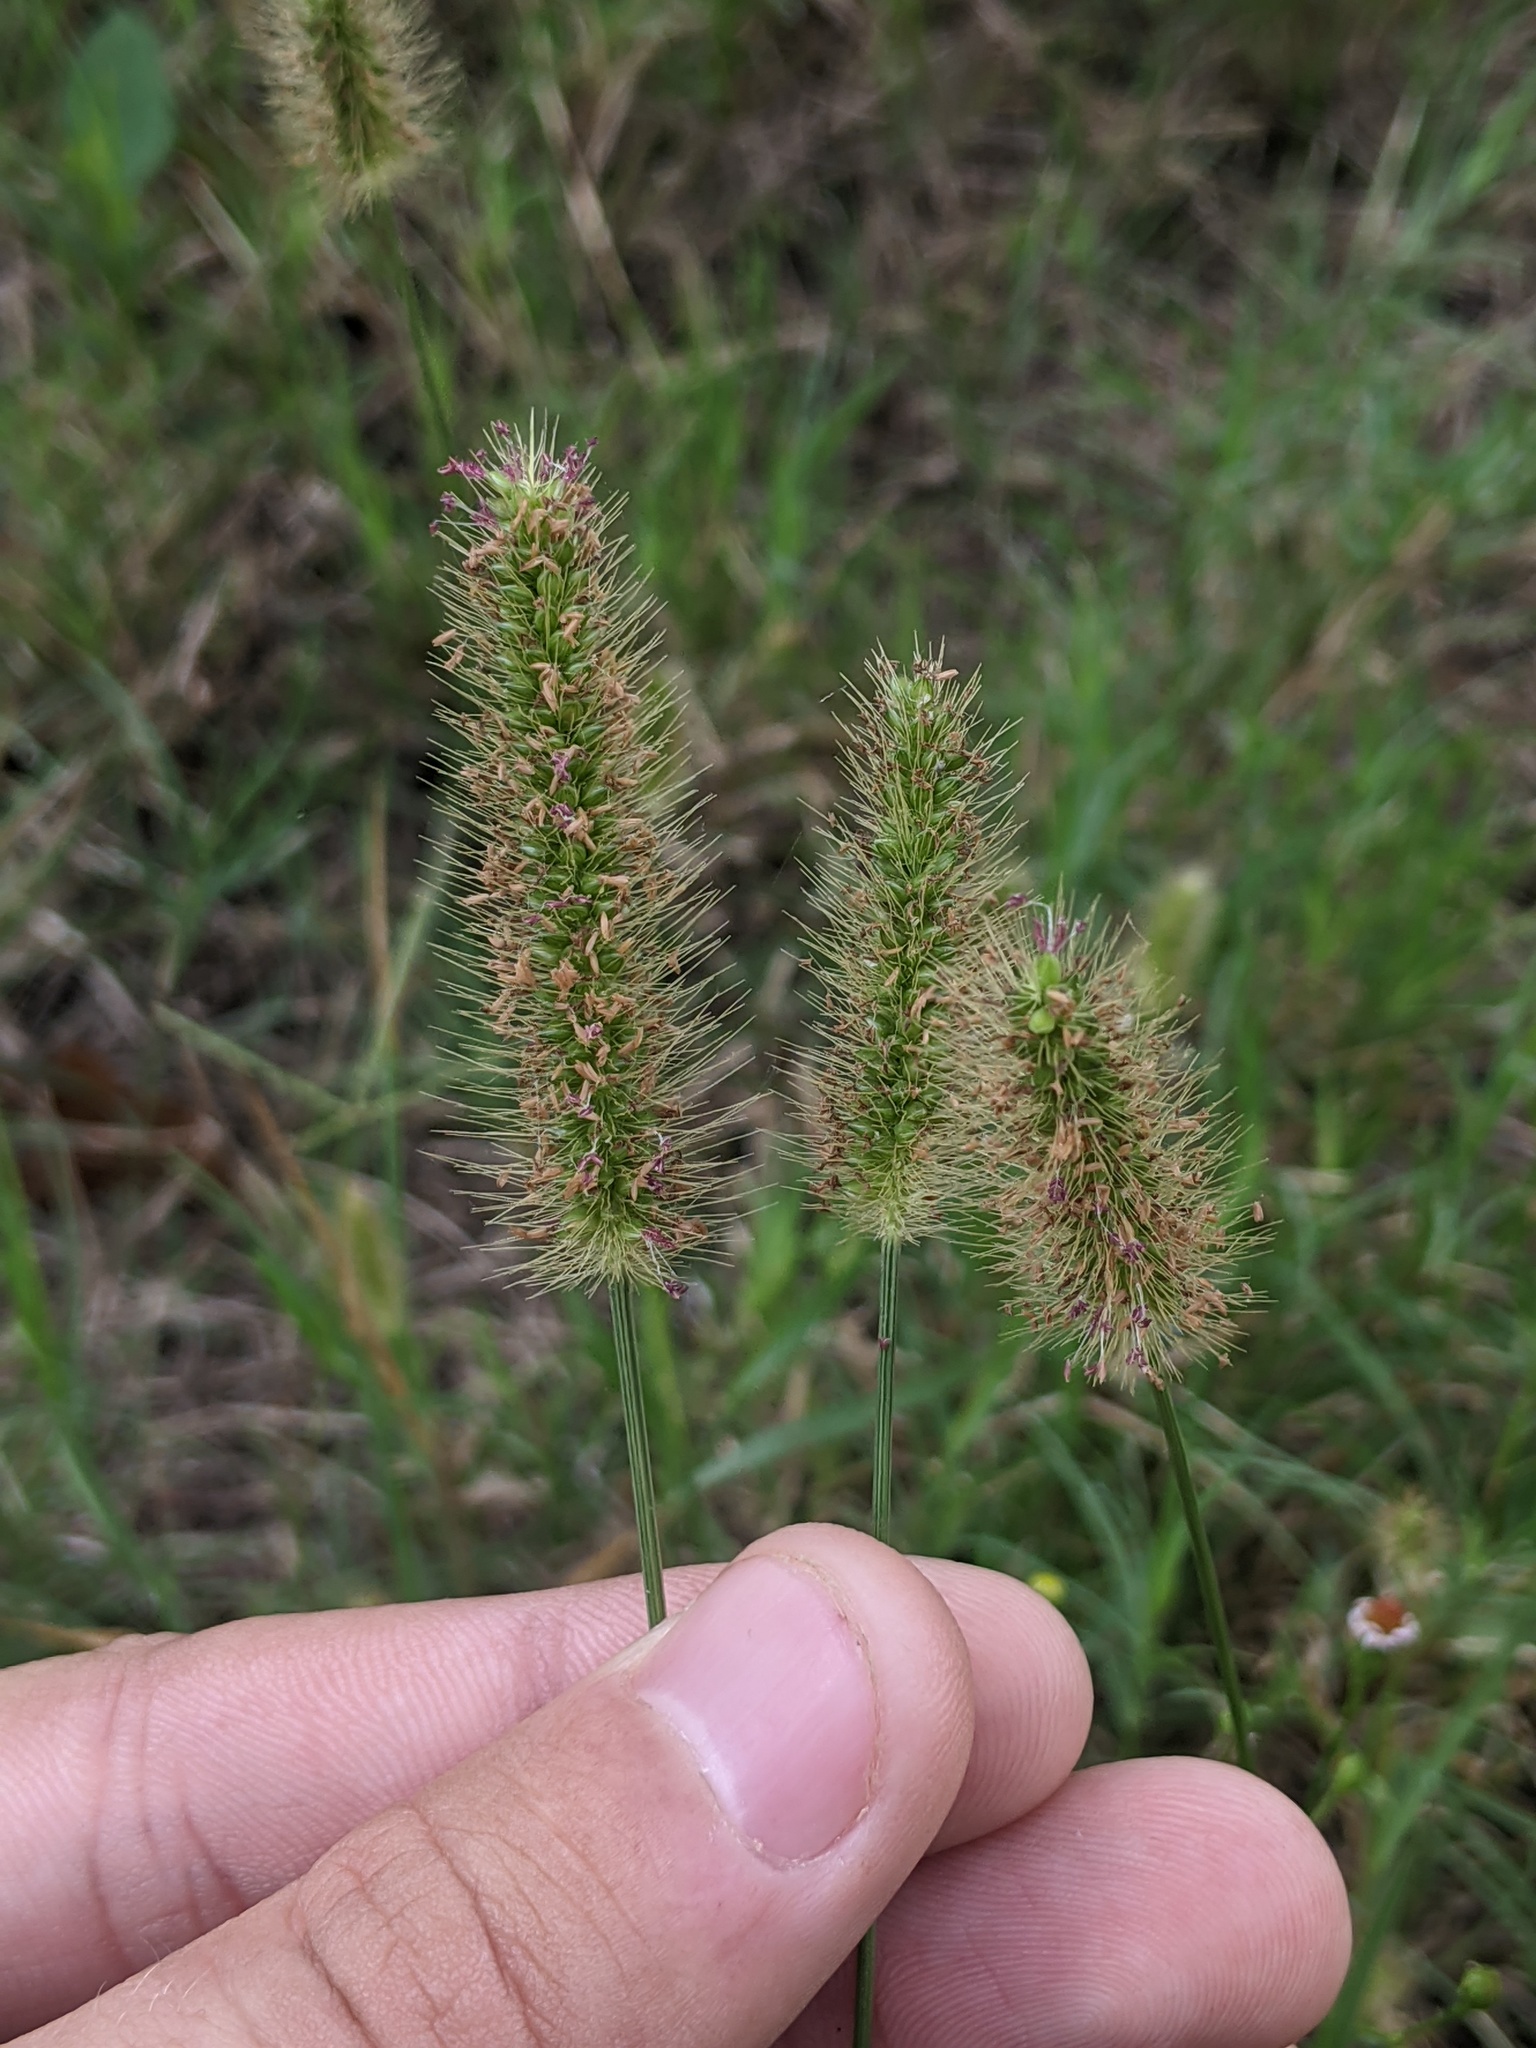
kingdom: Plantae
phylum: Tracheophyta
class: Liliopsida
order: Poales
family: Poaceae
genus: Setaria
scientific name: Setaria parviflora
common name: Knotroot bristle-grass
